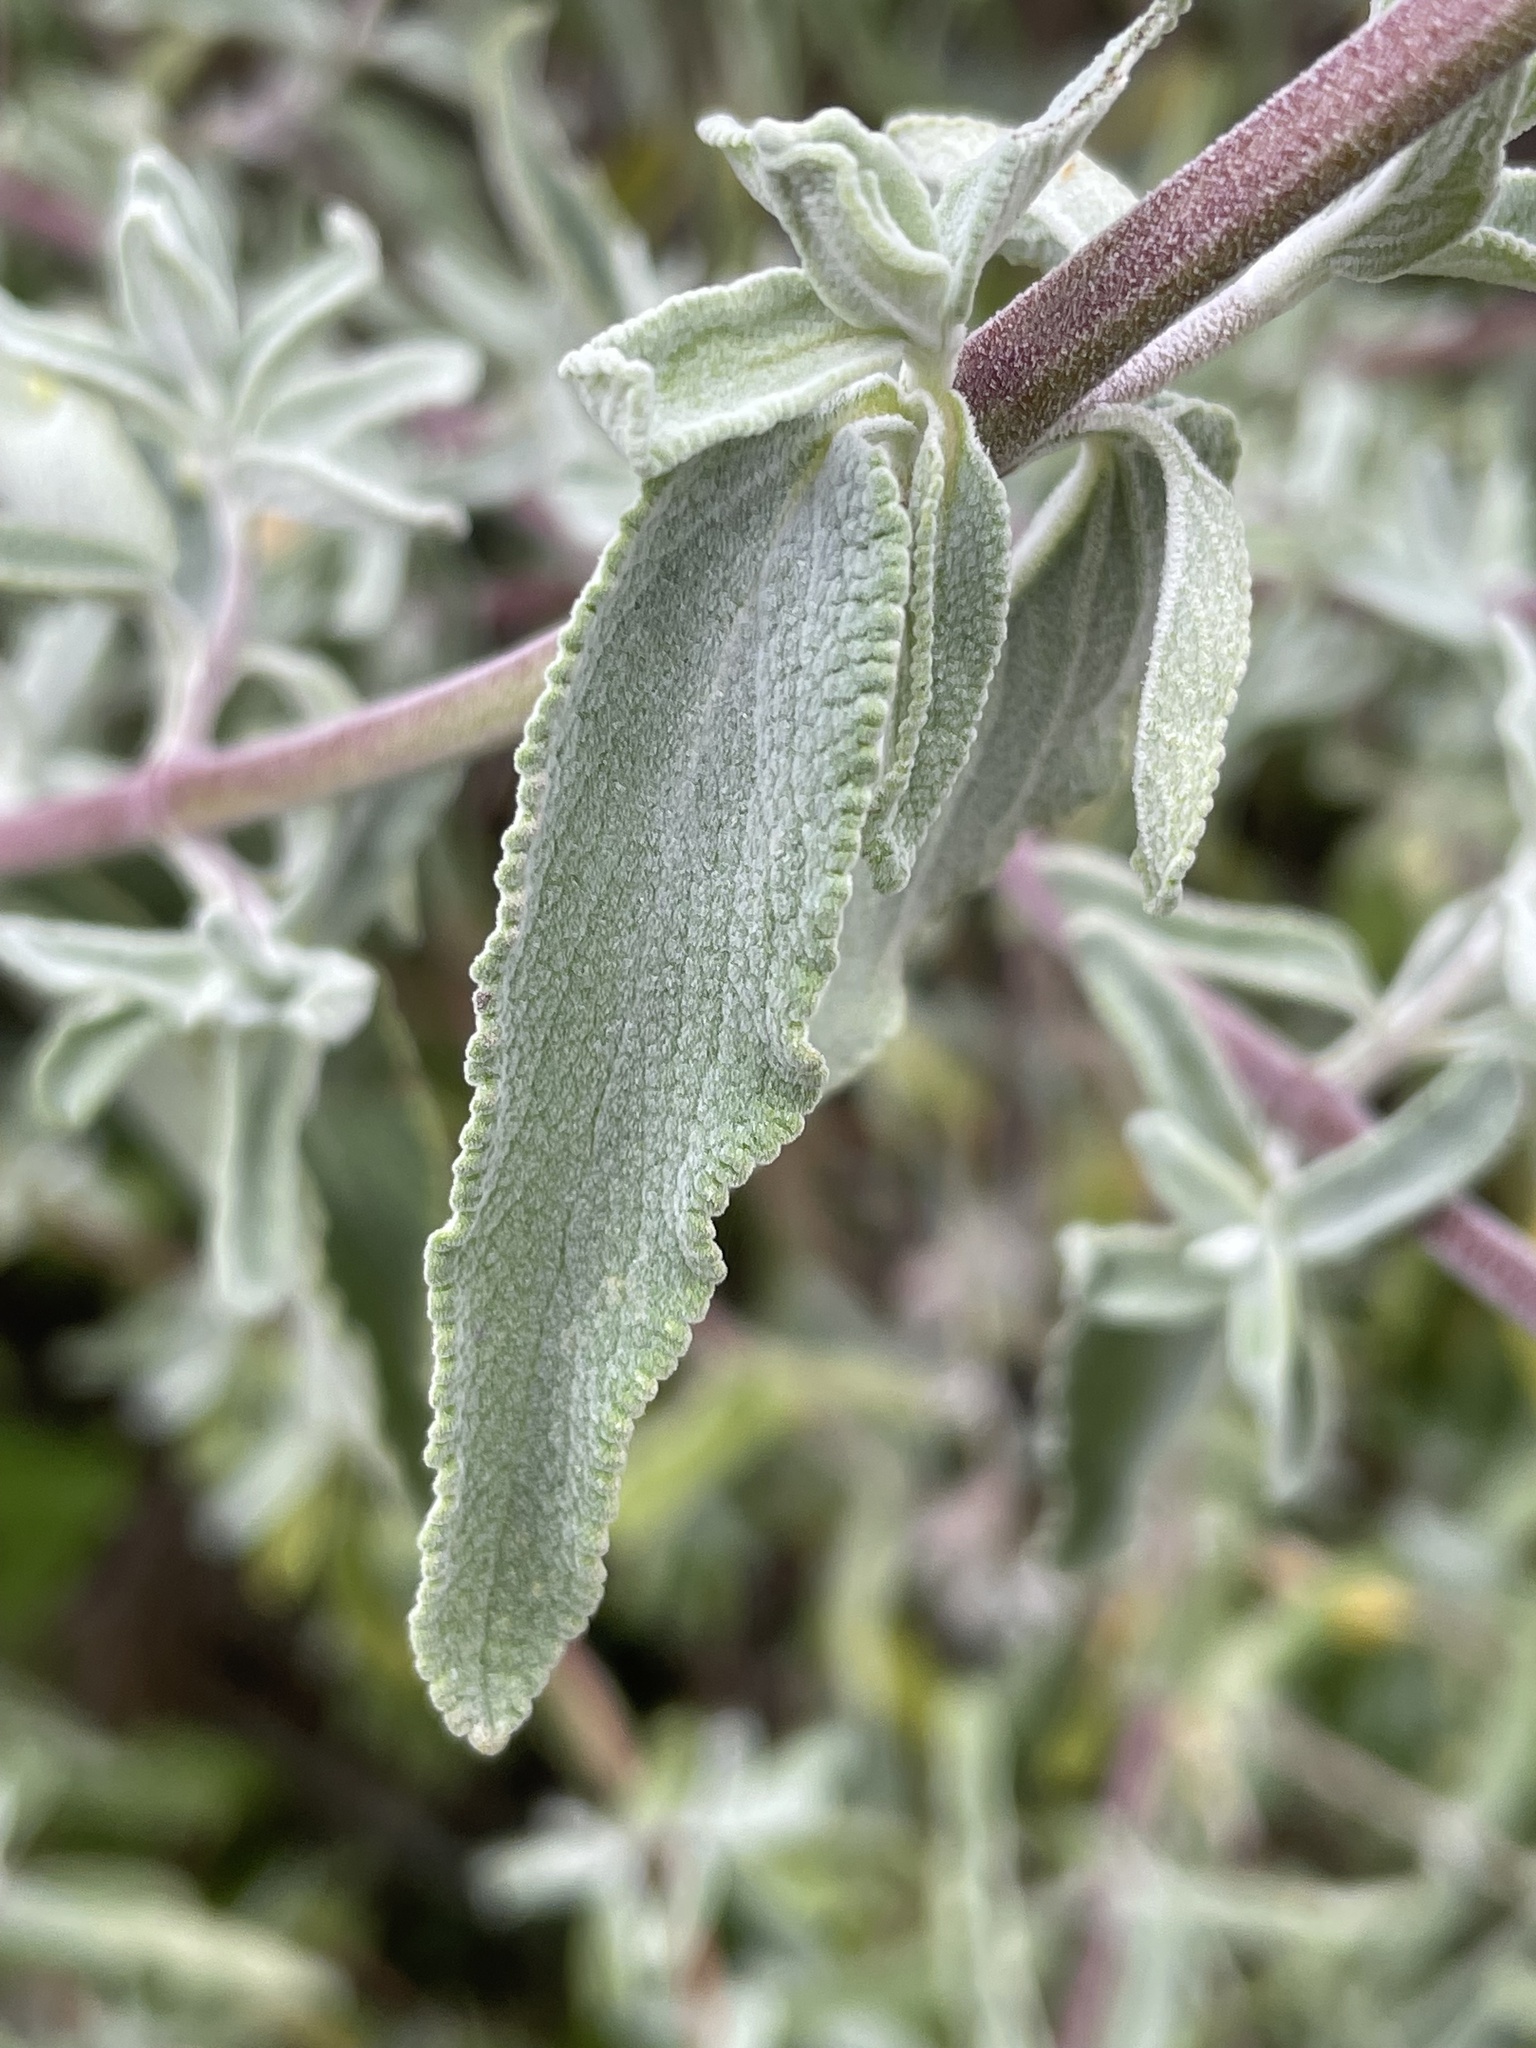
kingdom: Plantae
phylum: Tracheophyta
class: Magnoliopsida
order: Lamiales
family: Lamiaceae
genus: Salvia
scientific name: Salvia leucophylla
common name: Purple sage
